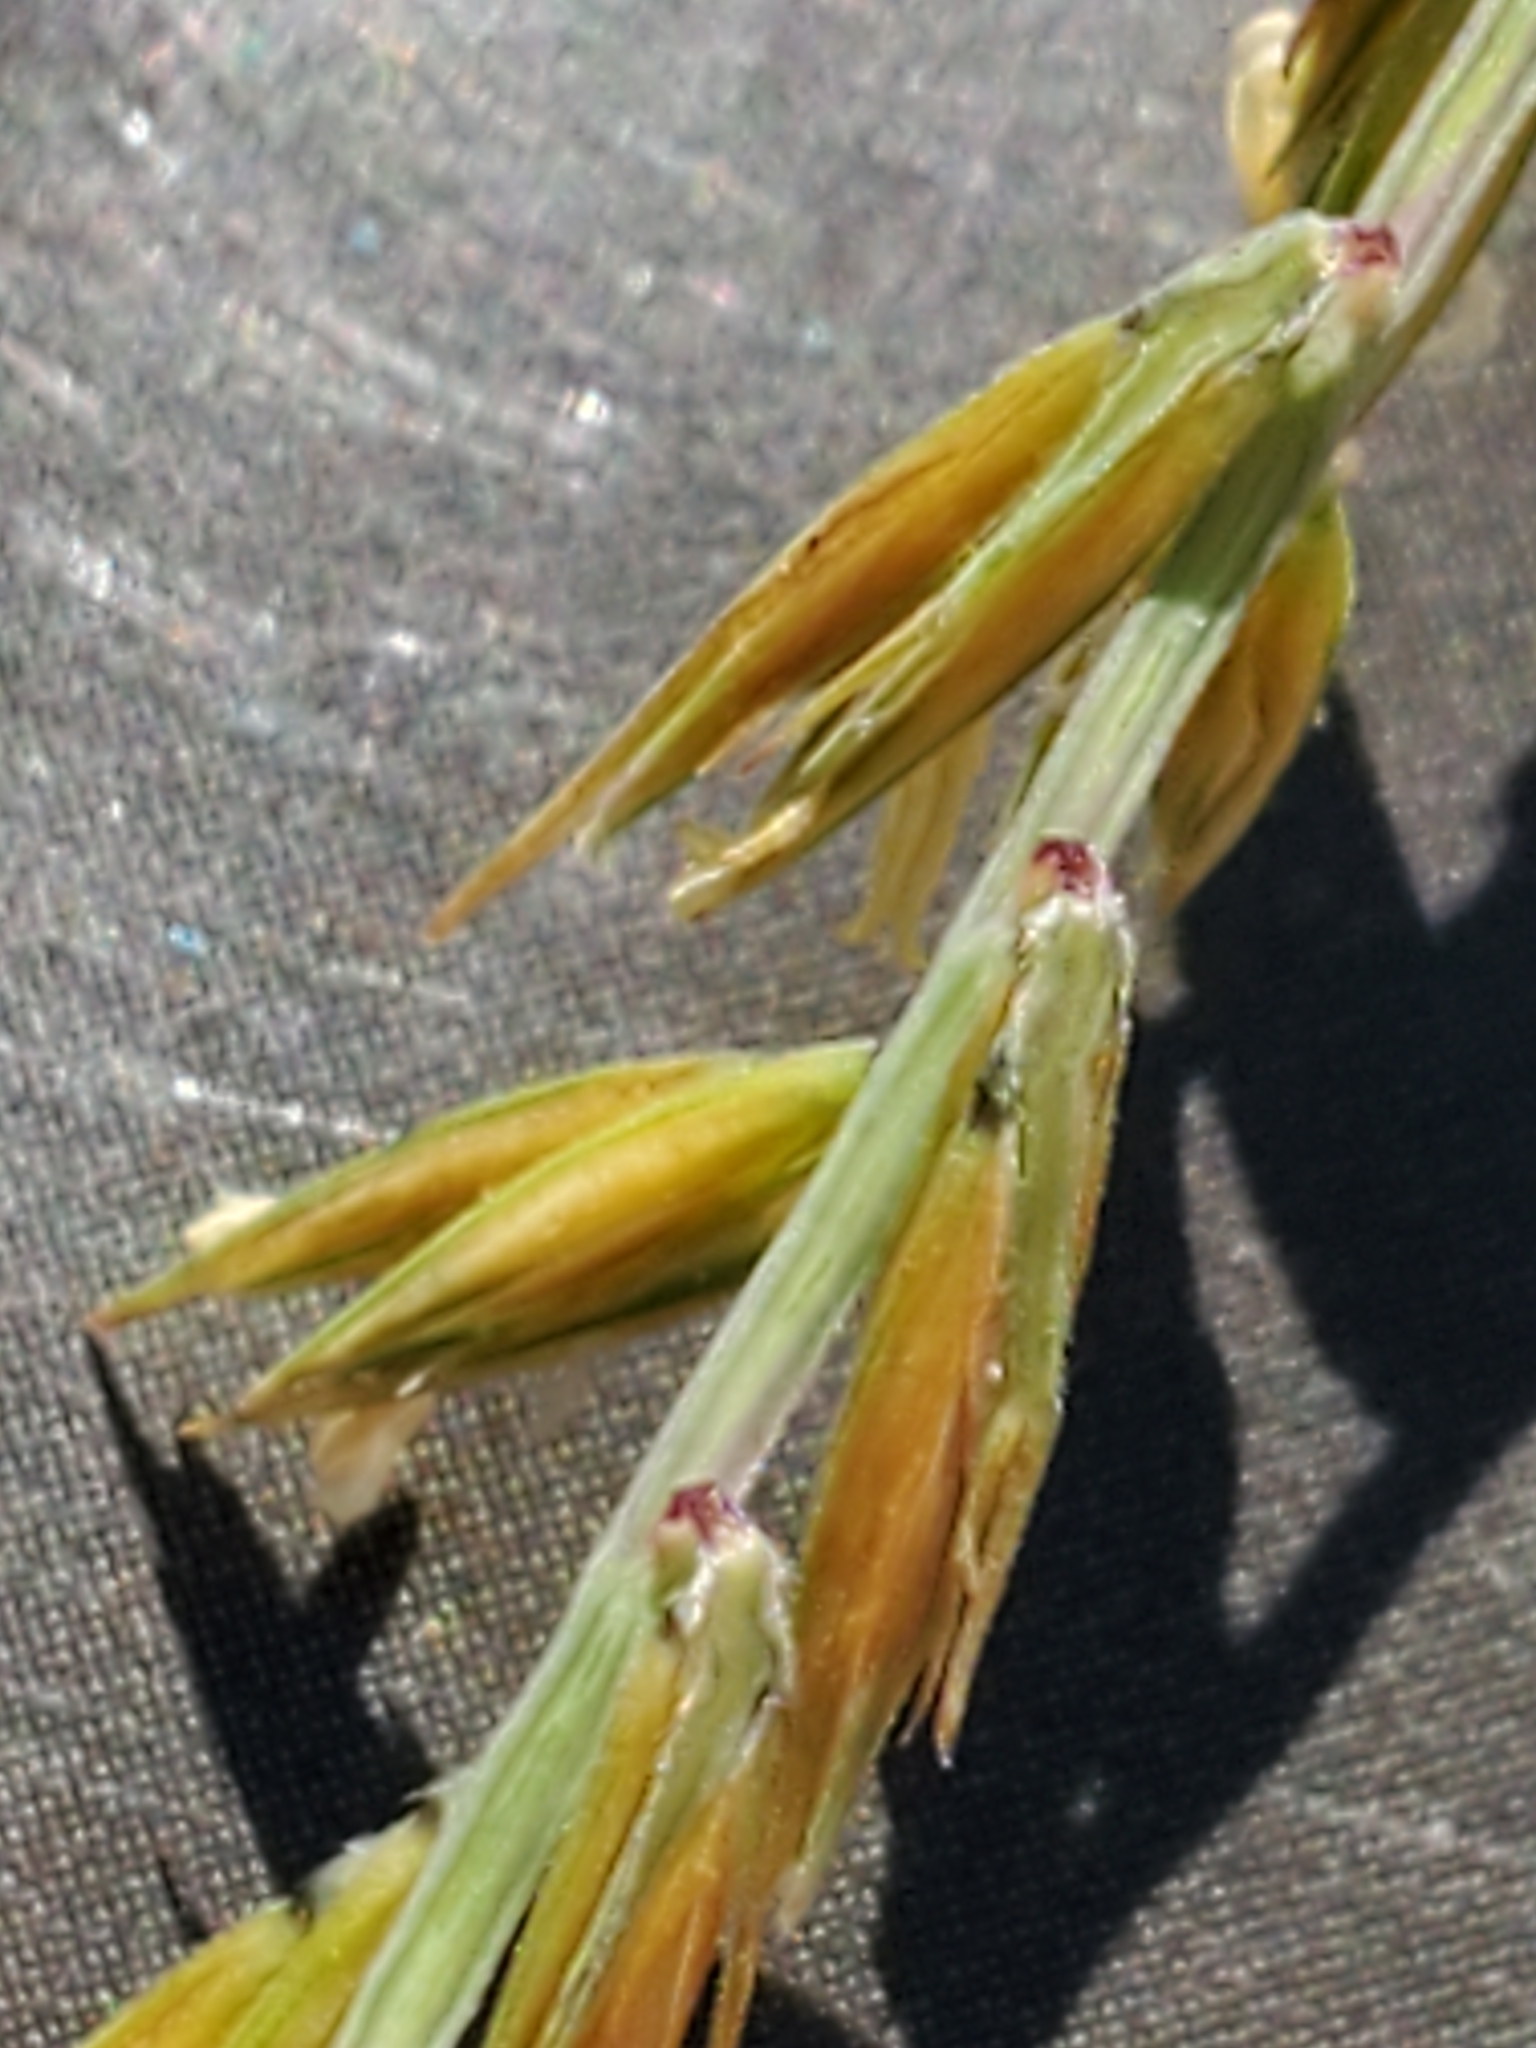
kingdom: Plantae
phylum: Tracheophyta
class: Liliopsida
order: Poales
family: Poaceae
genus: Bouteloua
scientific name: Bouteloua curtipendula
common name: Side-oats grama
